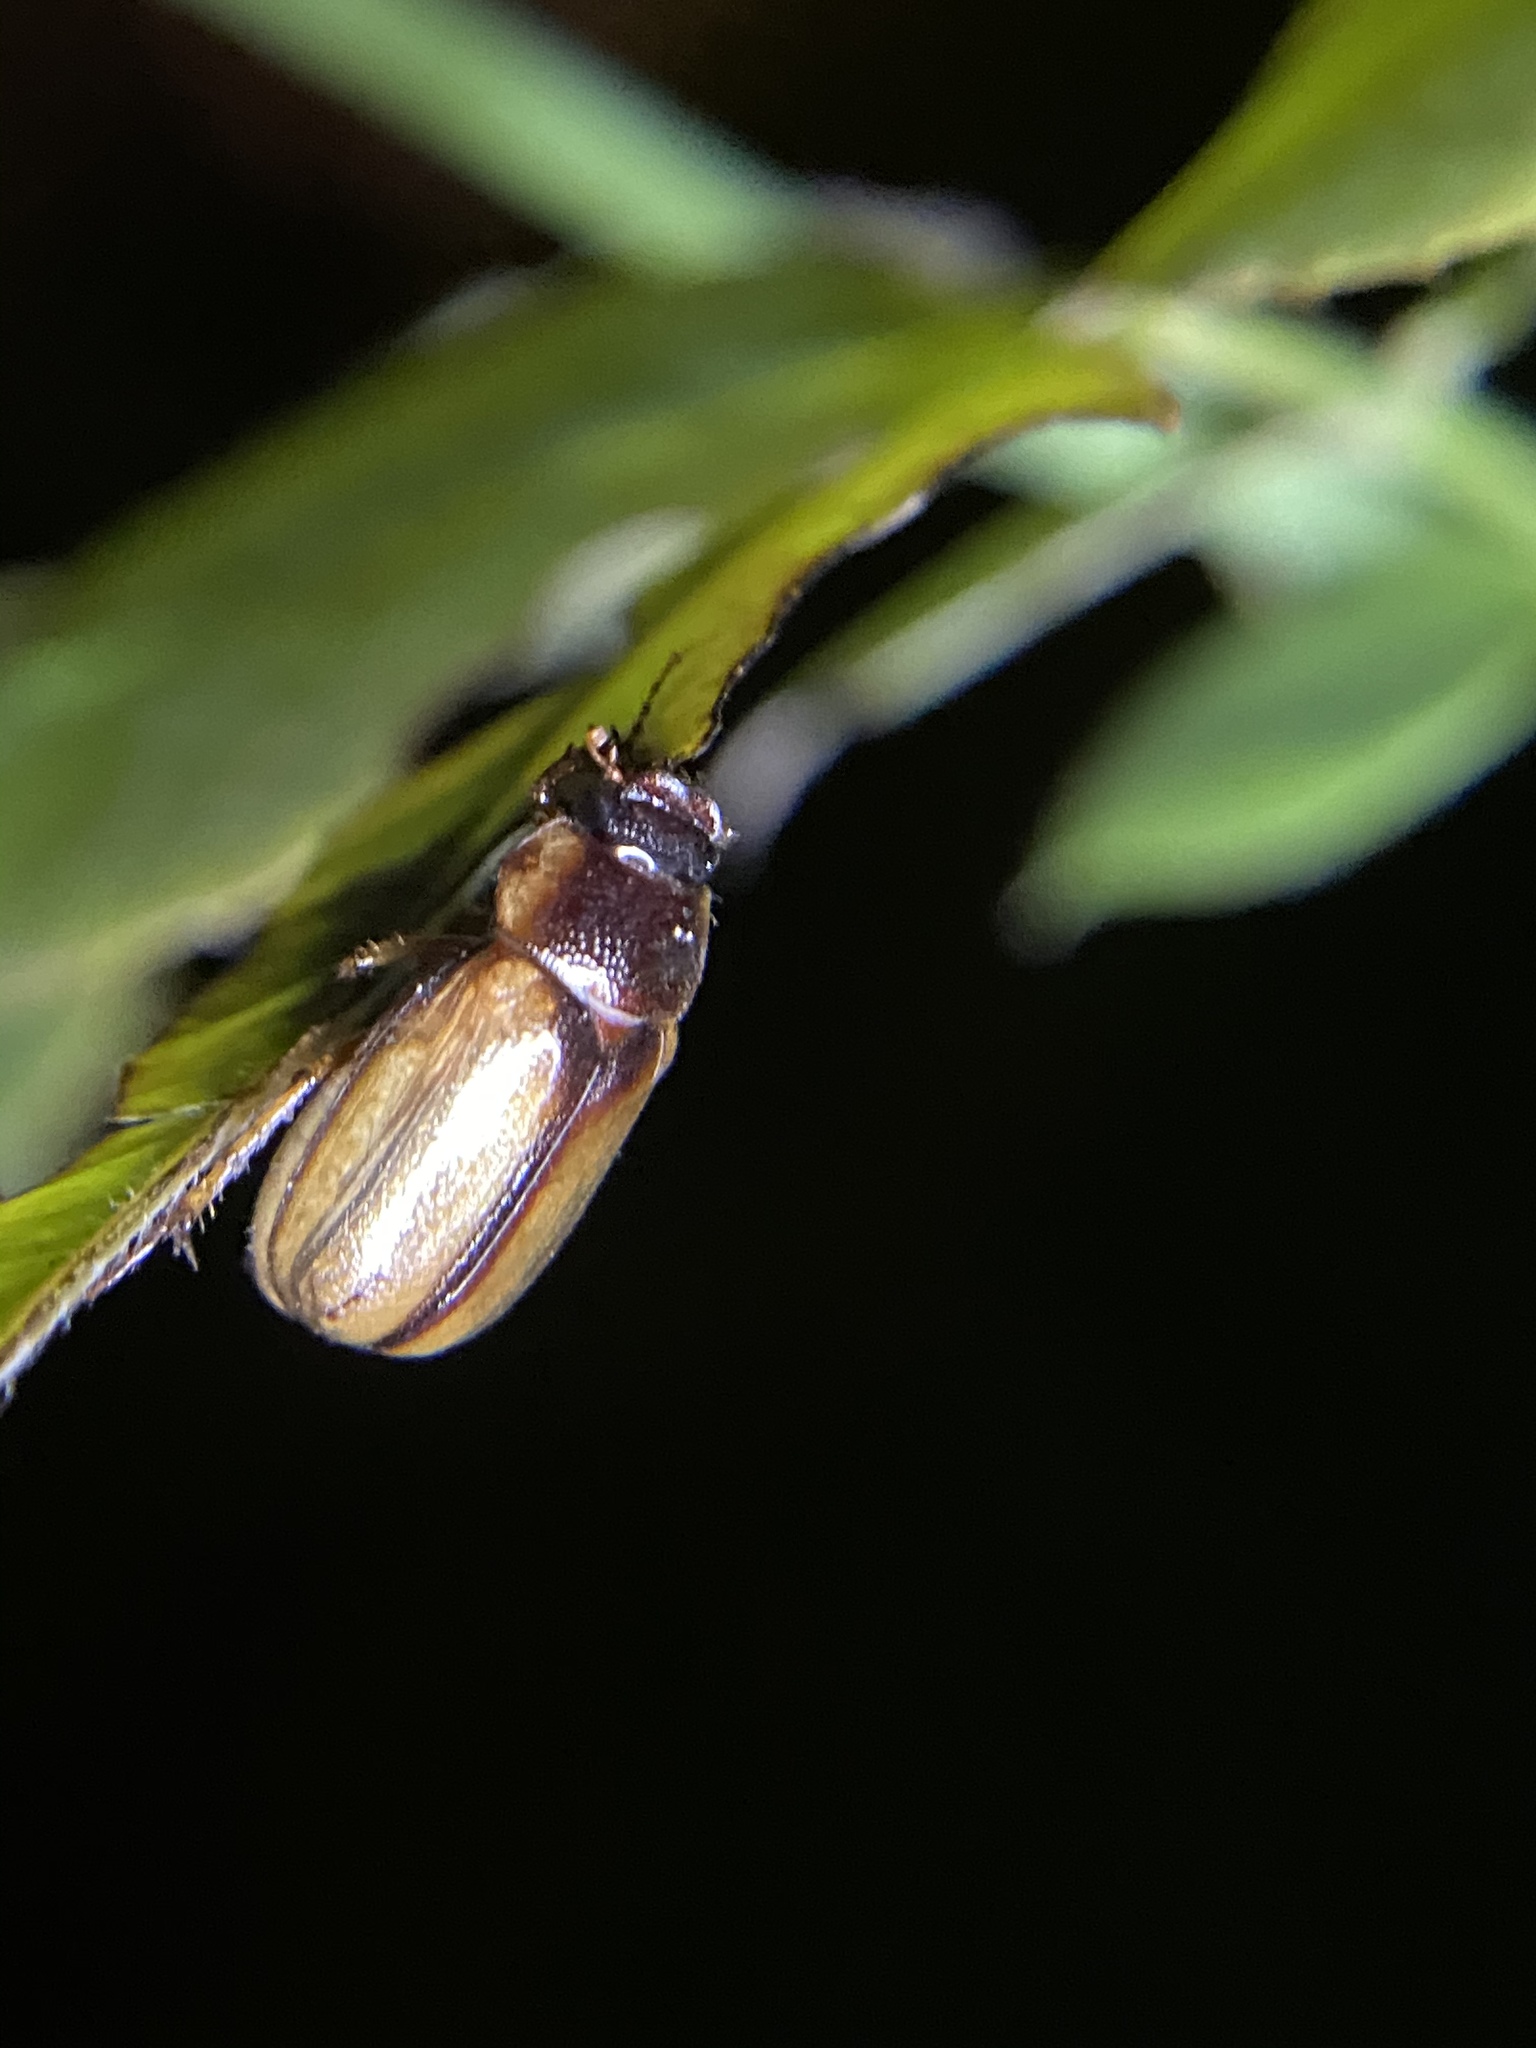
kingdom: Animalia
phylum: Arthropoda
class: Insecta
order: Coleoptera
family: Scarabaeidae
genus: Phyllophaga
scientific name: Phyllophaga bruneri
